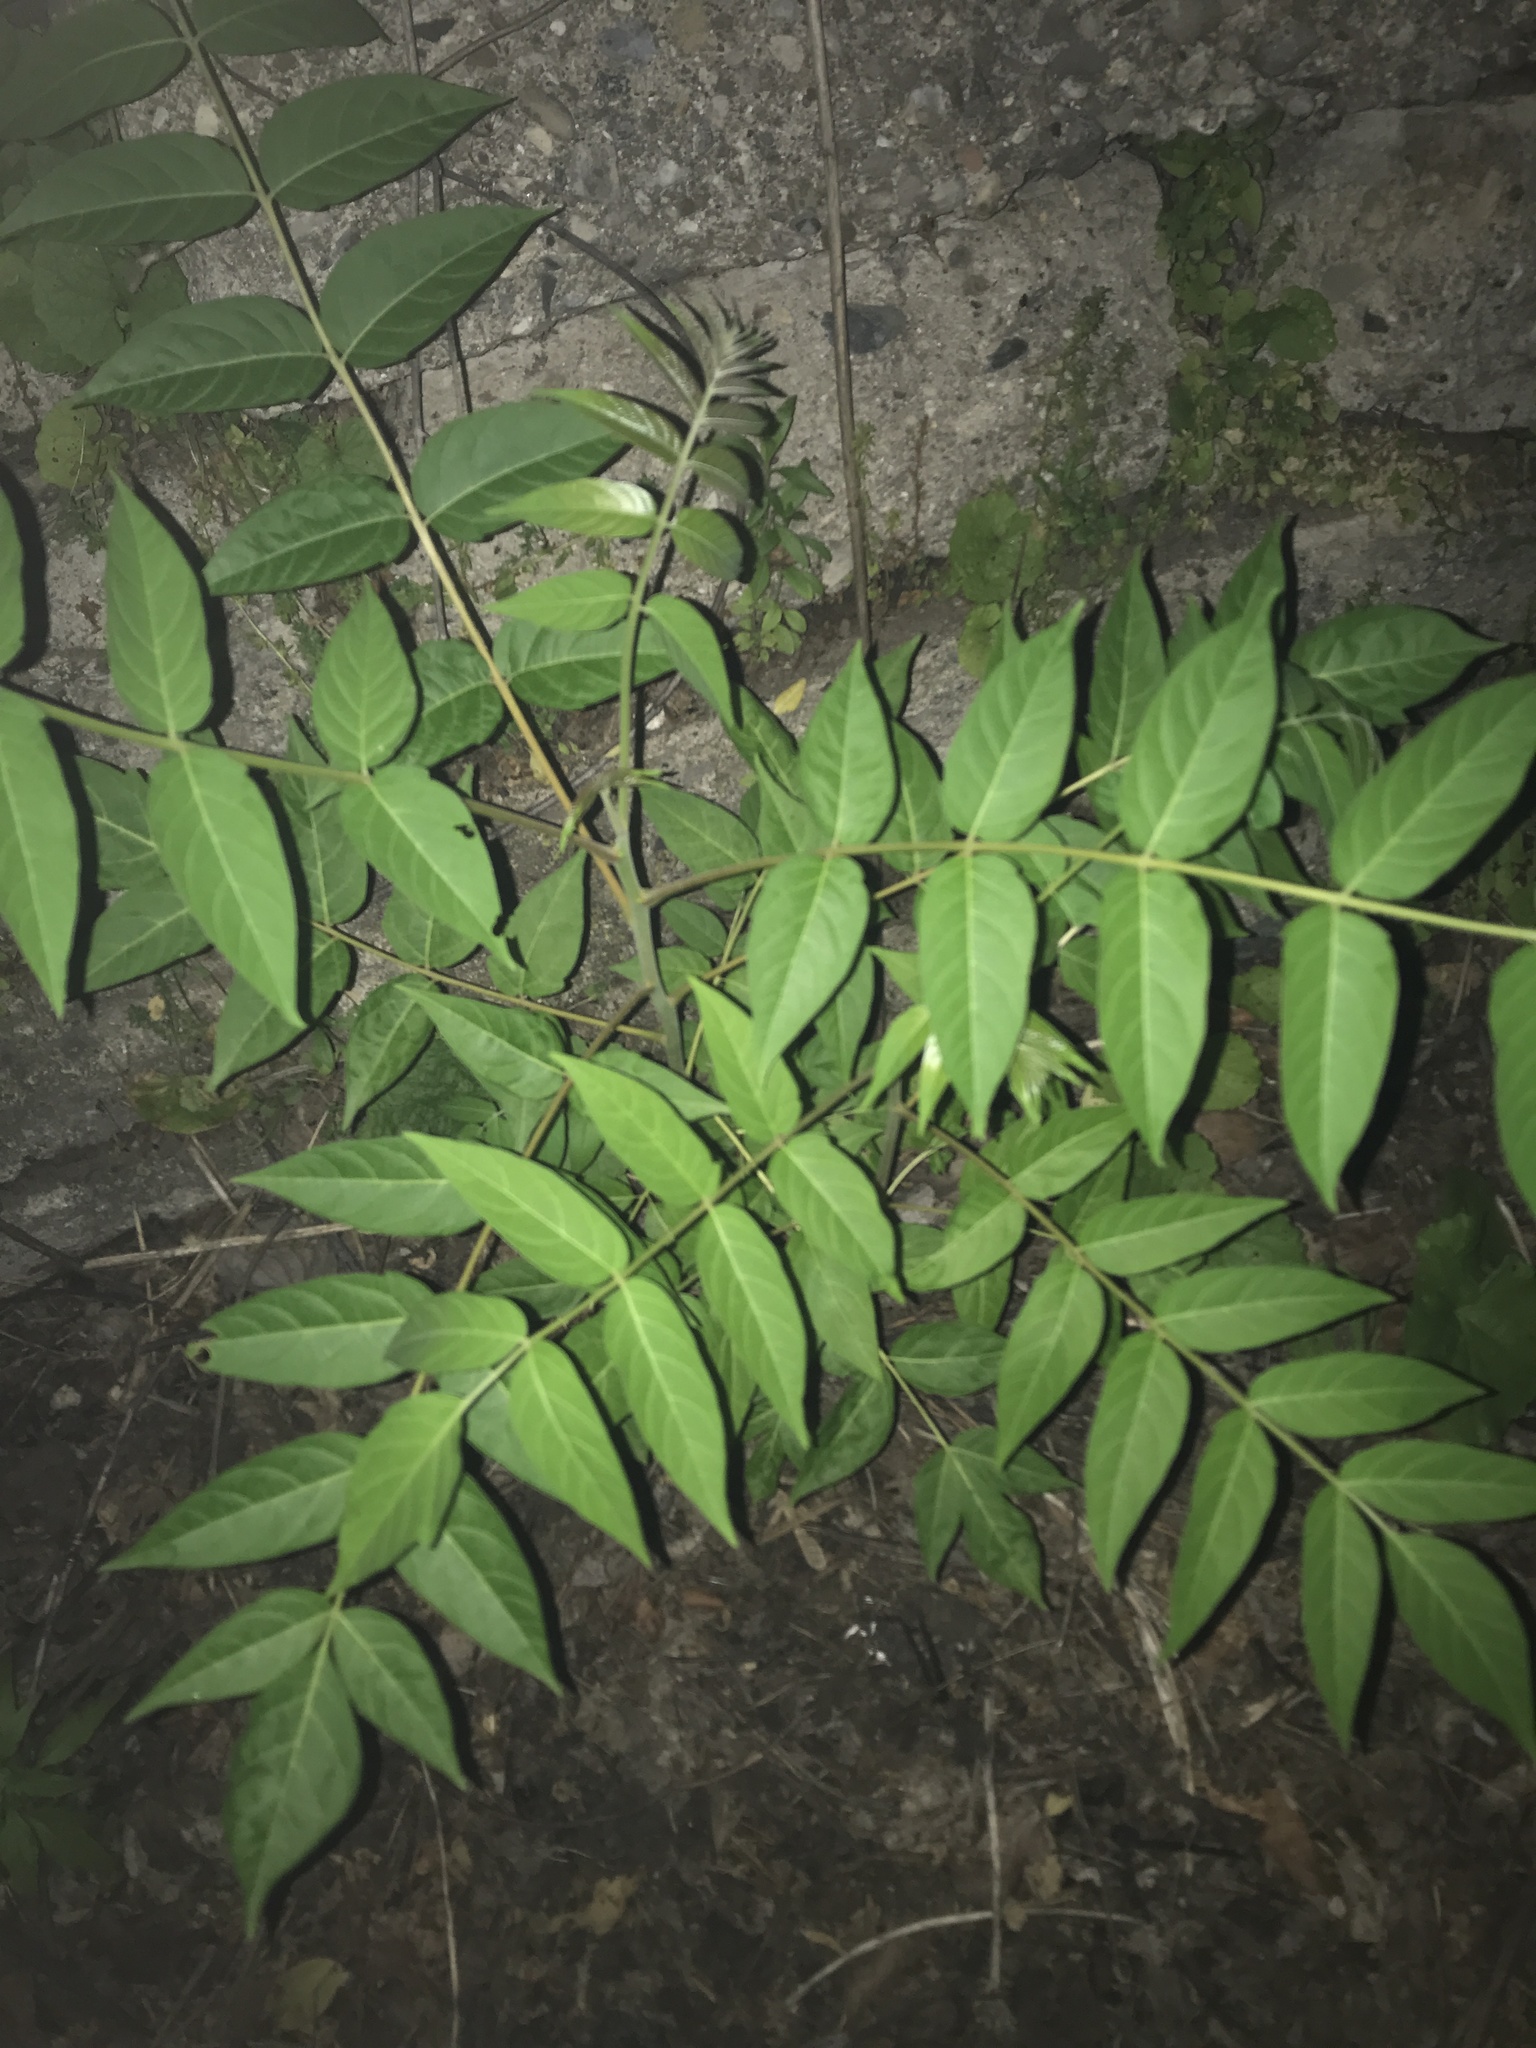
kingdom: Plantae
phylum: Tracheophyta
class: Magnoliopsida
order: Sapindales
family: Simaroubaceae
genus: Ailanthus
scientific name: Ailanthus altissima
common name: Tree-of-heaven
